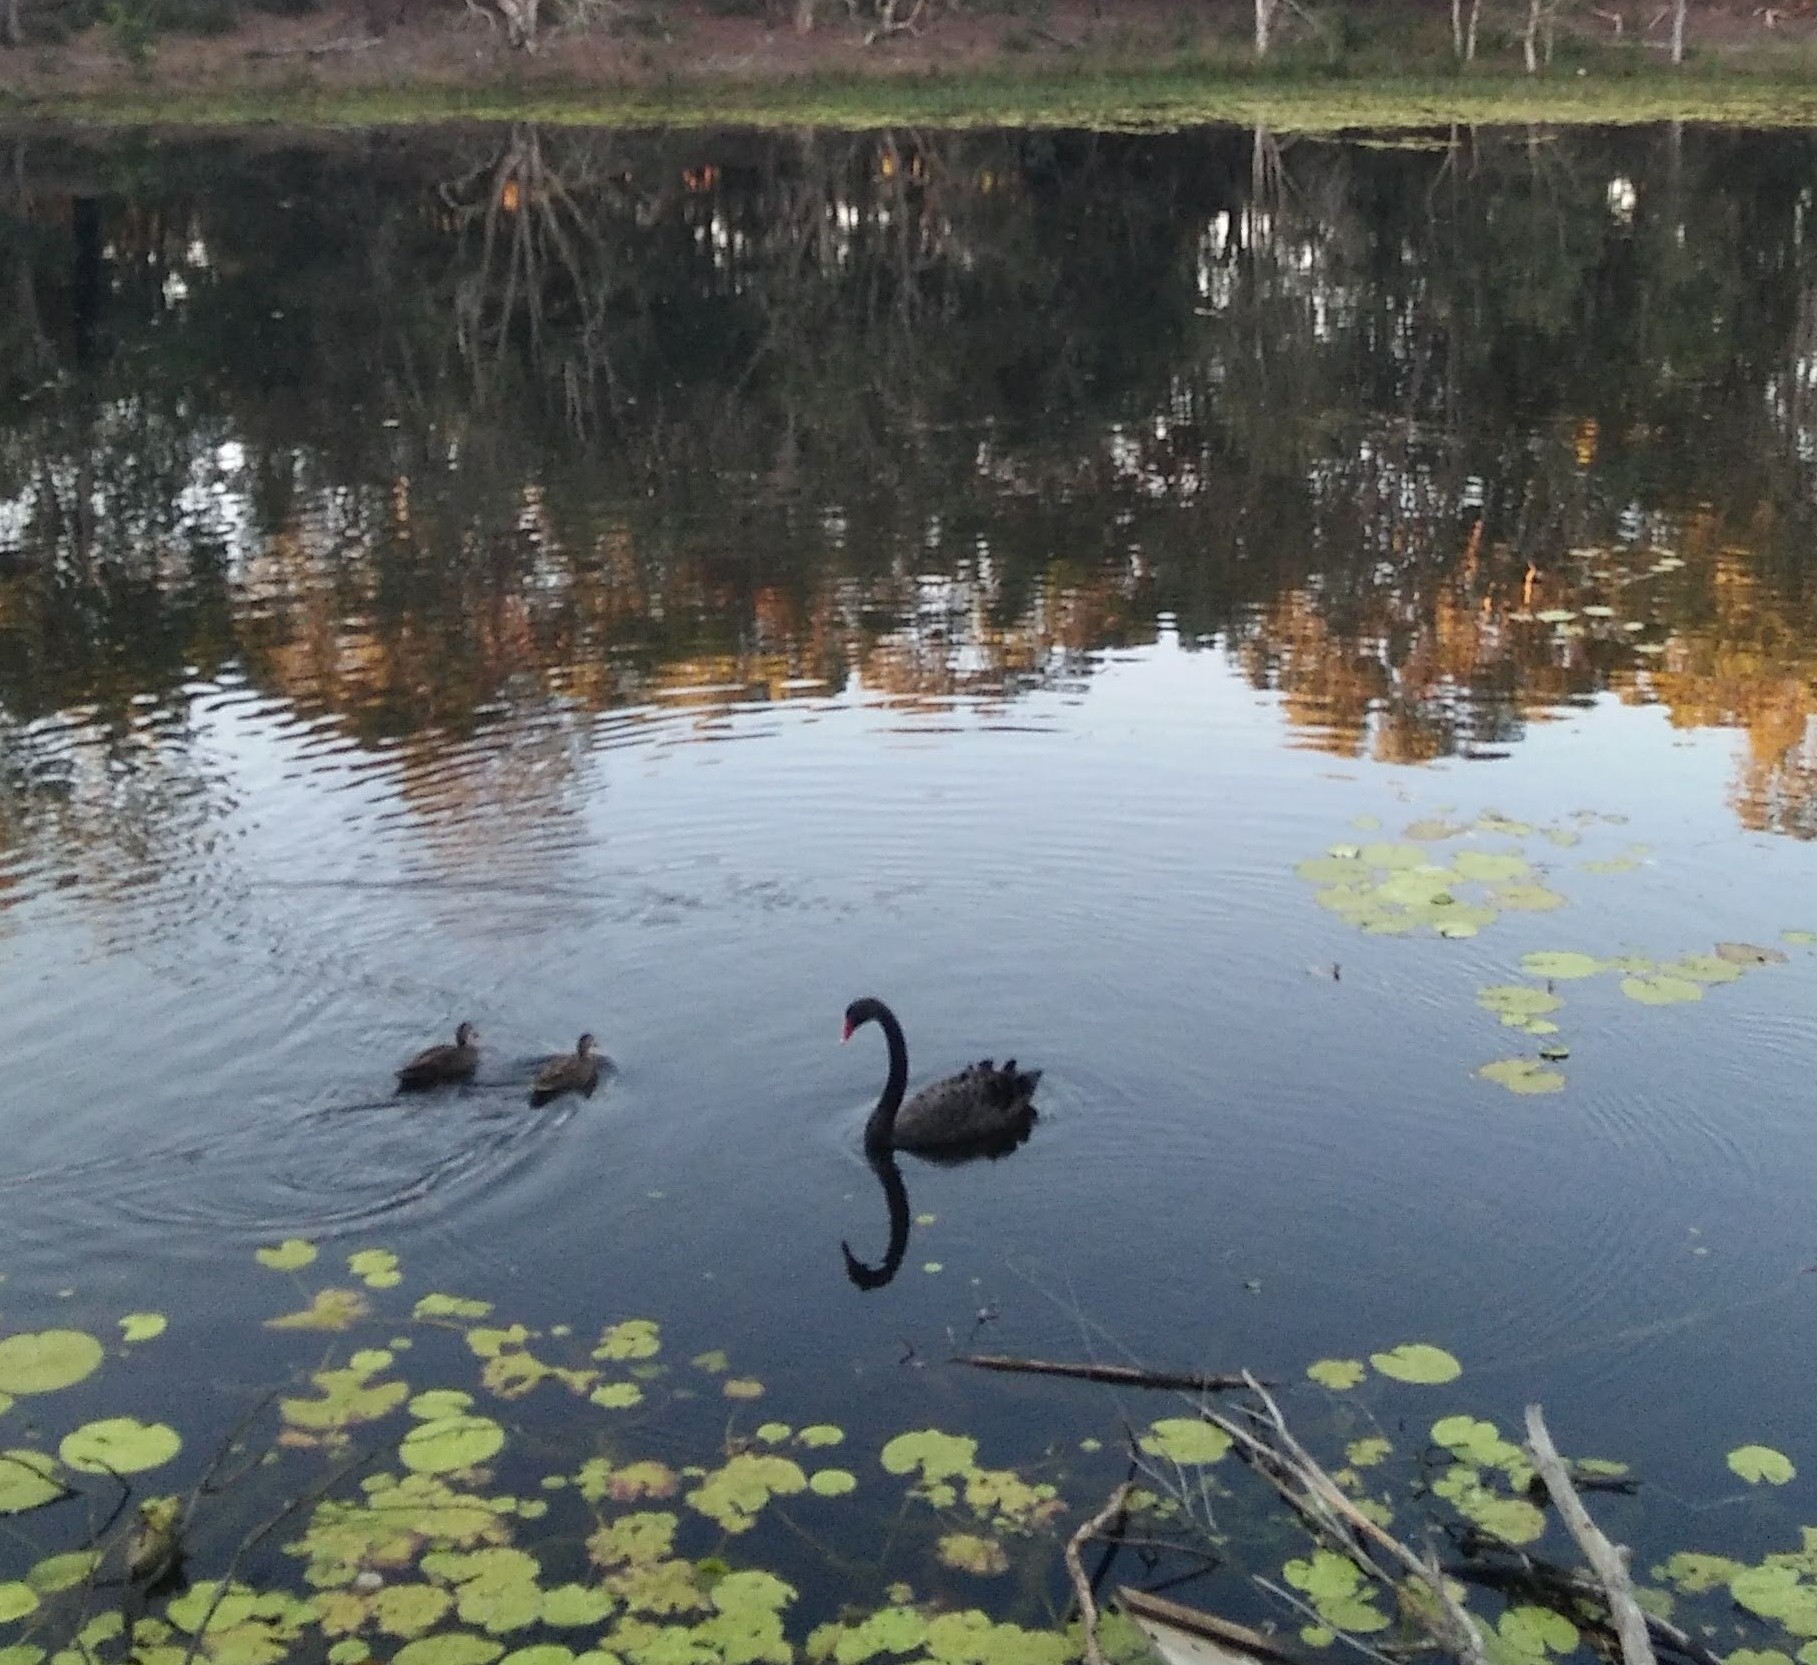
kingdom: Animalia
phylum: Chordata
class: Aves
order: Anseriformes
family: Anatidae
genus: Cygnus
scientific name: Cygnus atratus
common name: Black swan
